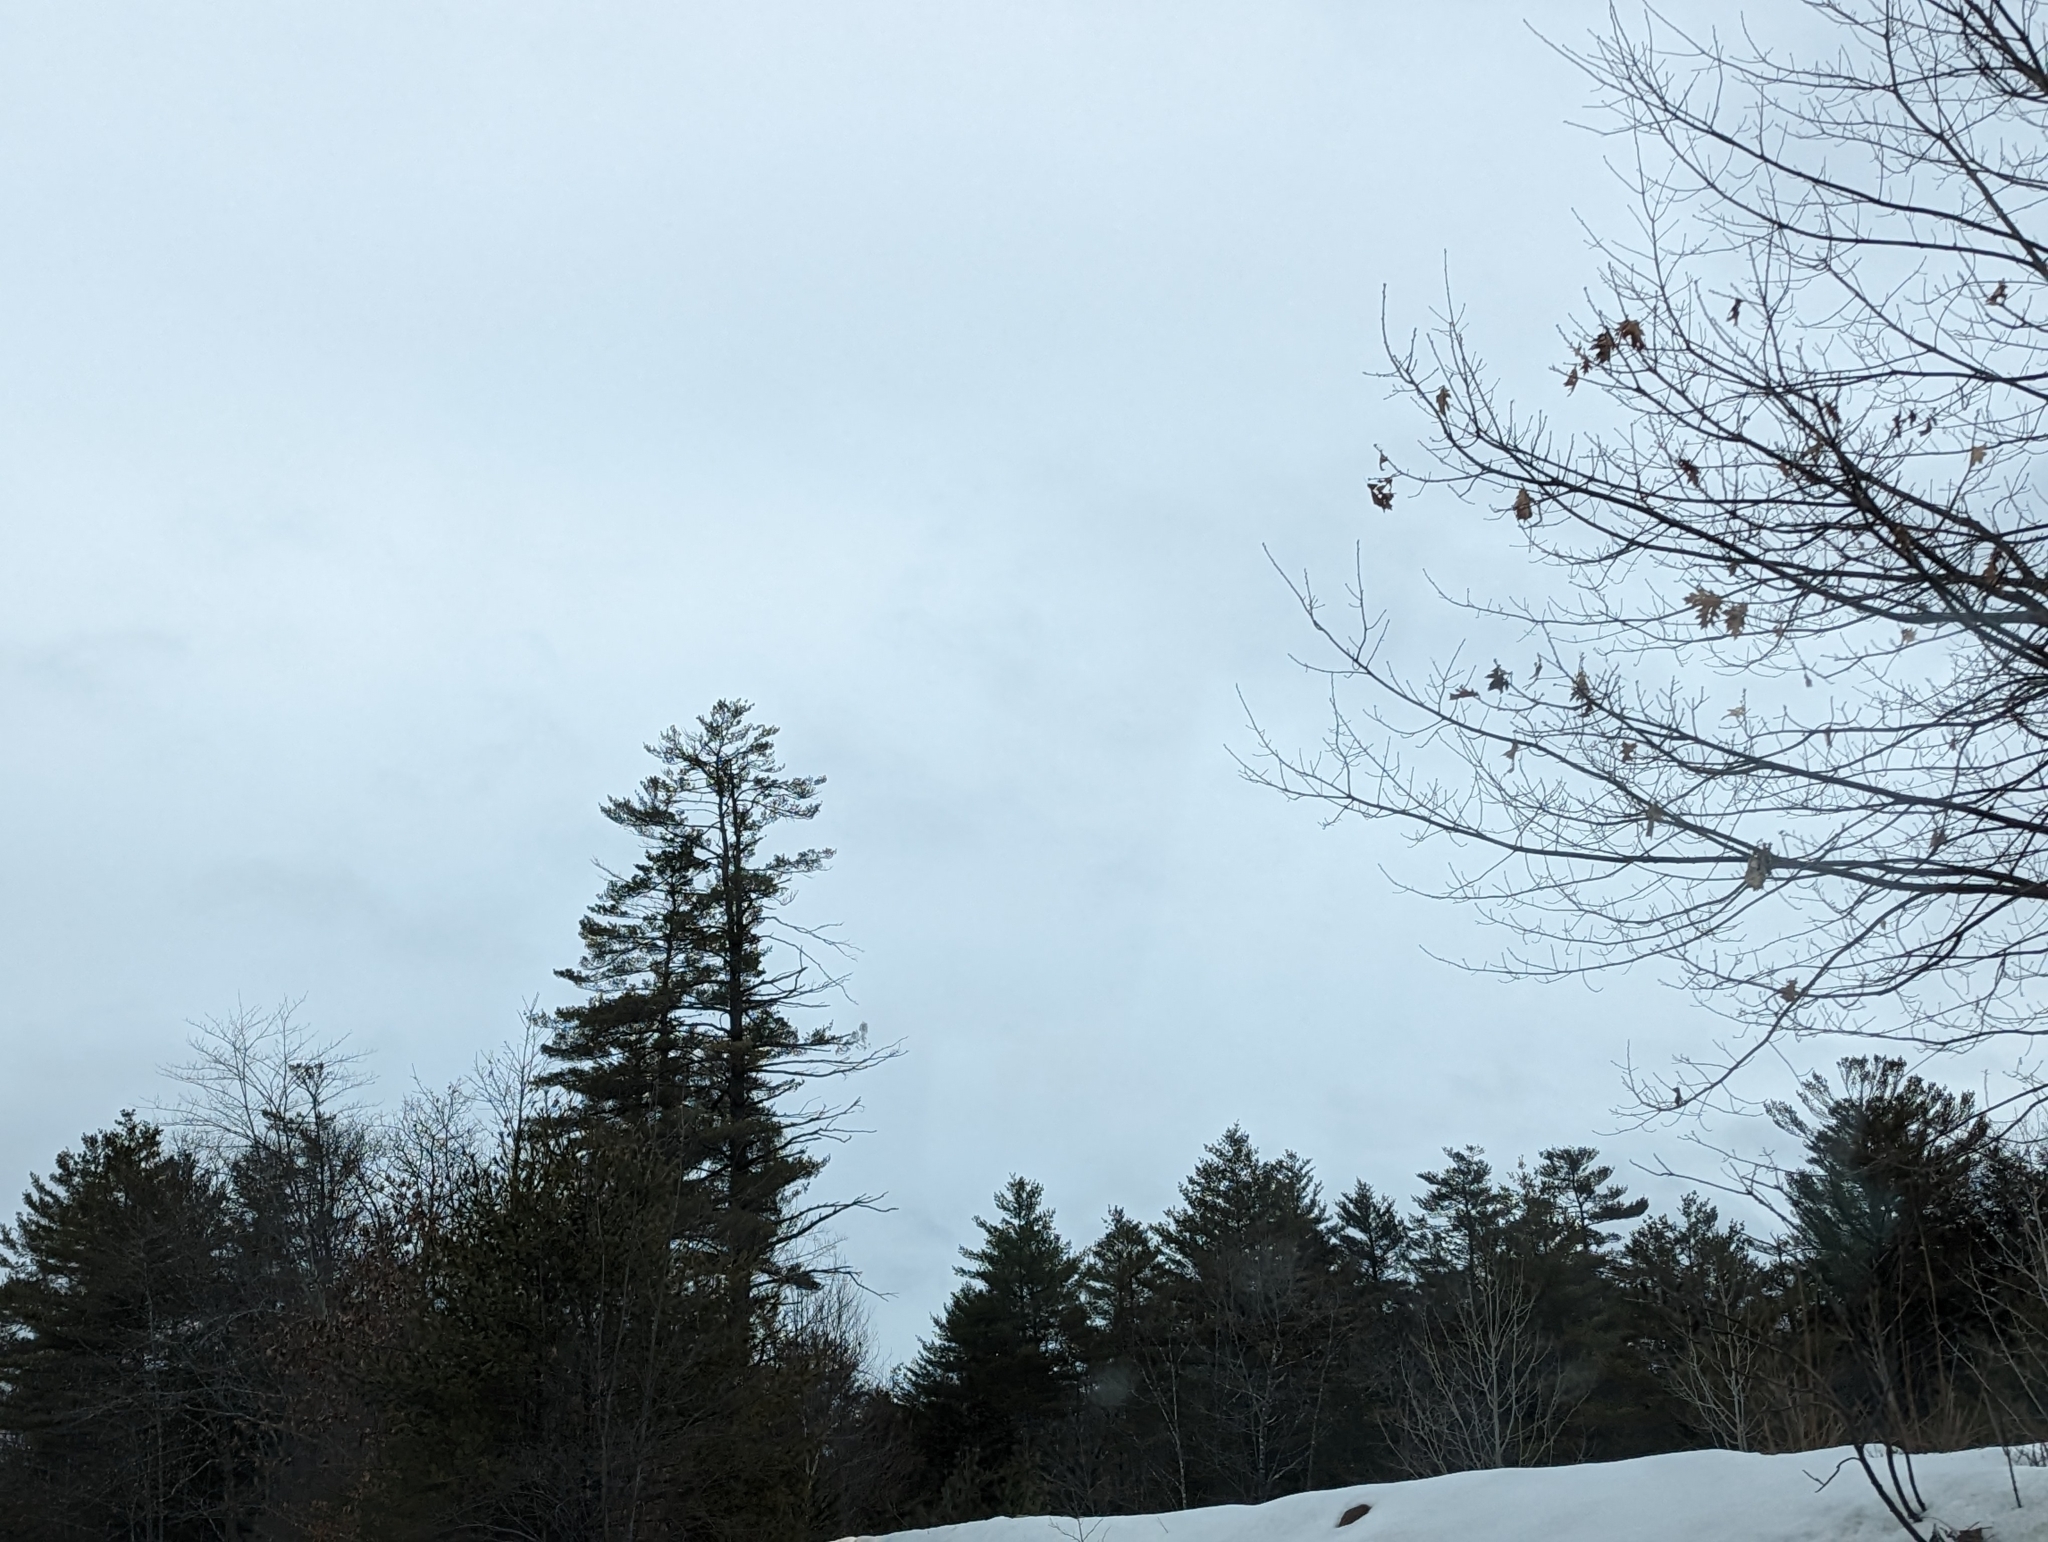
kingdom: Plantae
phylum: Tracheophyta
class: Pinopsida
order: Pinales
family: Pinaceae
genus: Pinus
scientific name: Pinus strobus
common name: Weymouth pine
